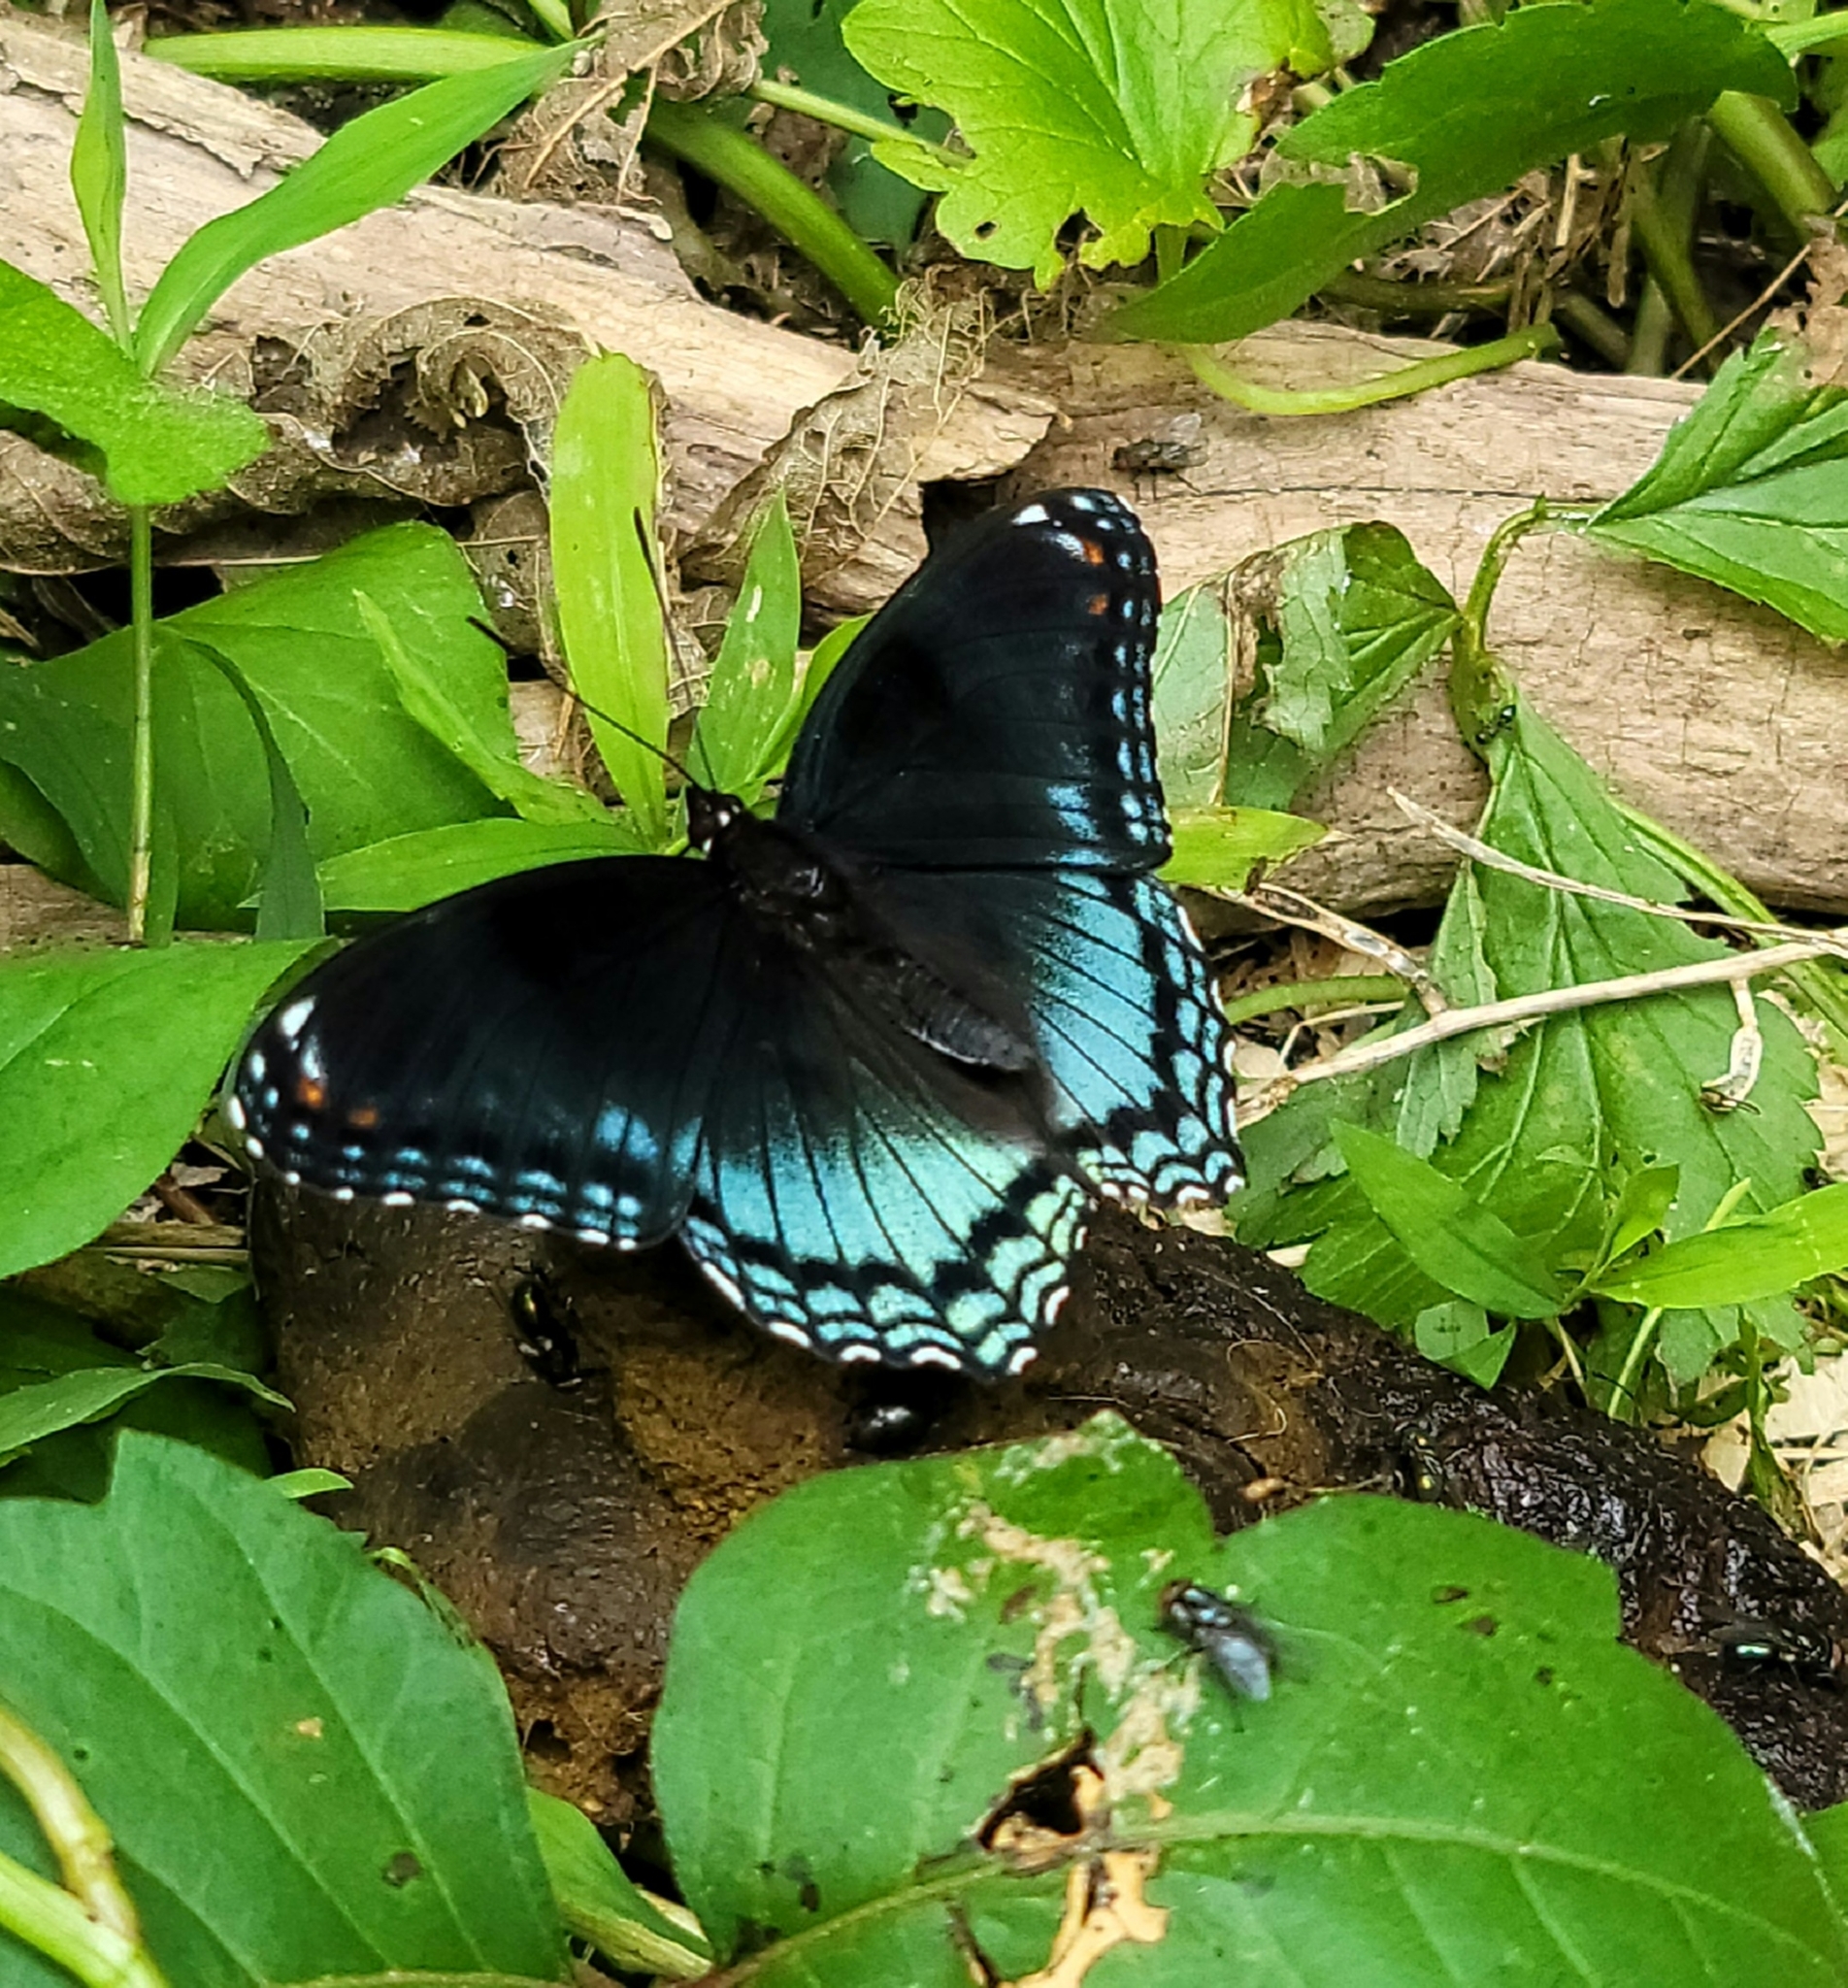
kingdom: Animalia
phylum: Arthropoda
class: Insecta
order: Lepidoptera
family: Nymphalidae
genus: Limenitis
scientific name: Limenitis astyanax
